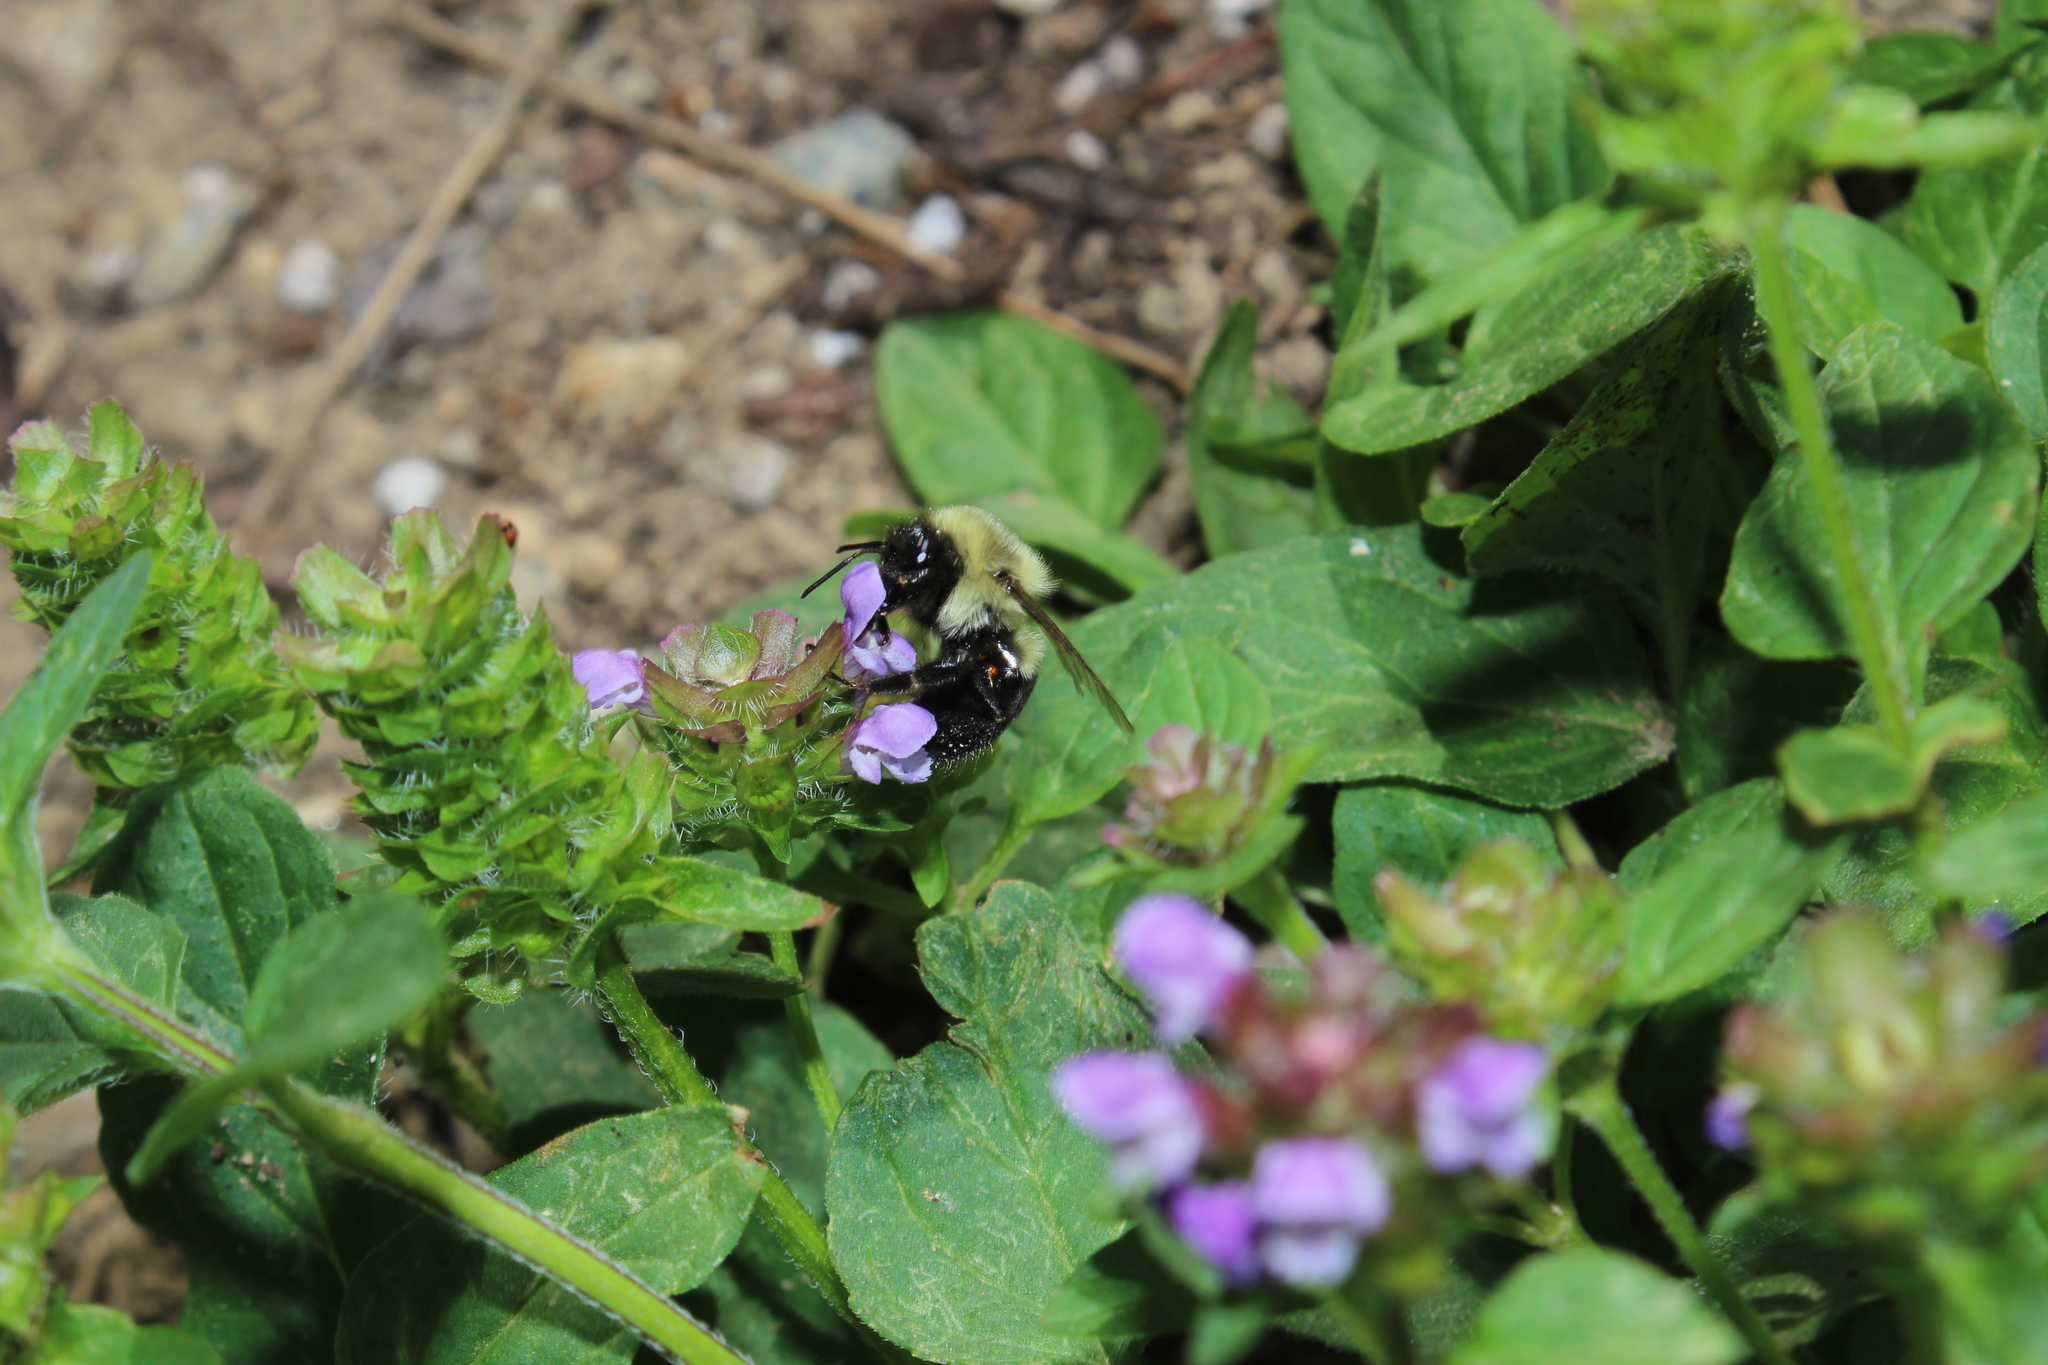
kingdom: Animalia
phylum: Arthropoda
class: Insecta
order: Hymenoptera
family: Apidae
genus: Bombus
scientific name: Bombus impatiens
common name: Common eastern bumble bee
